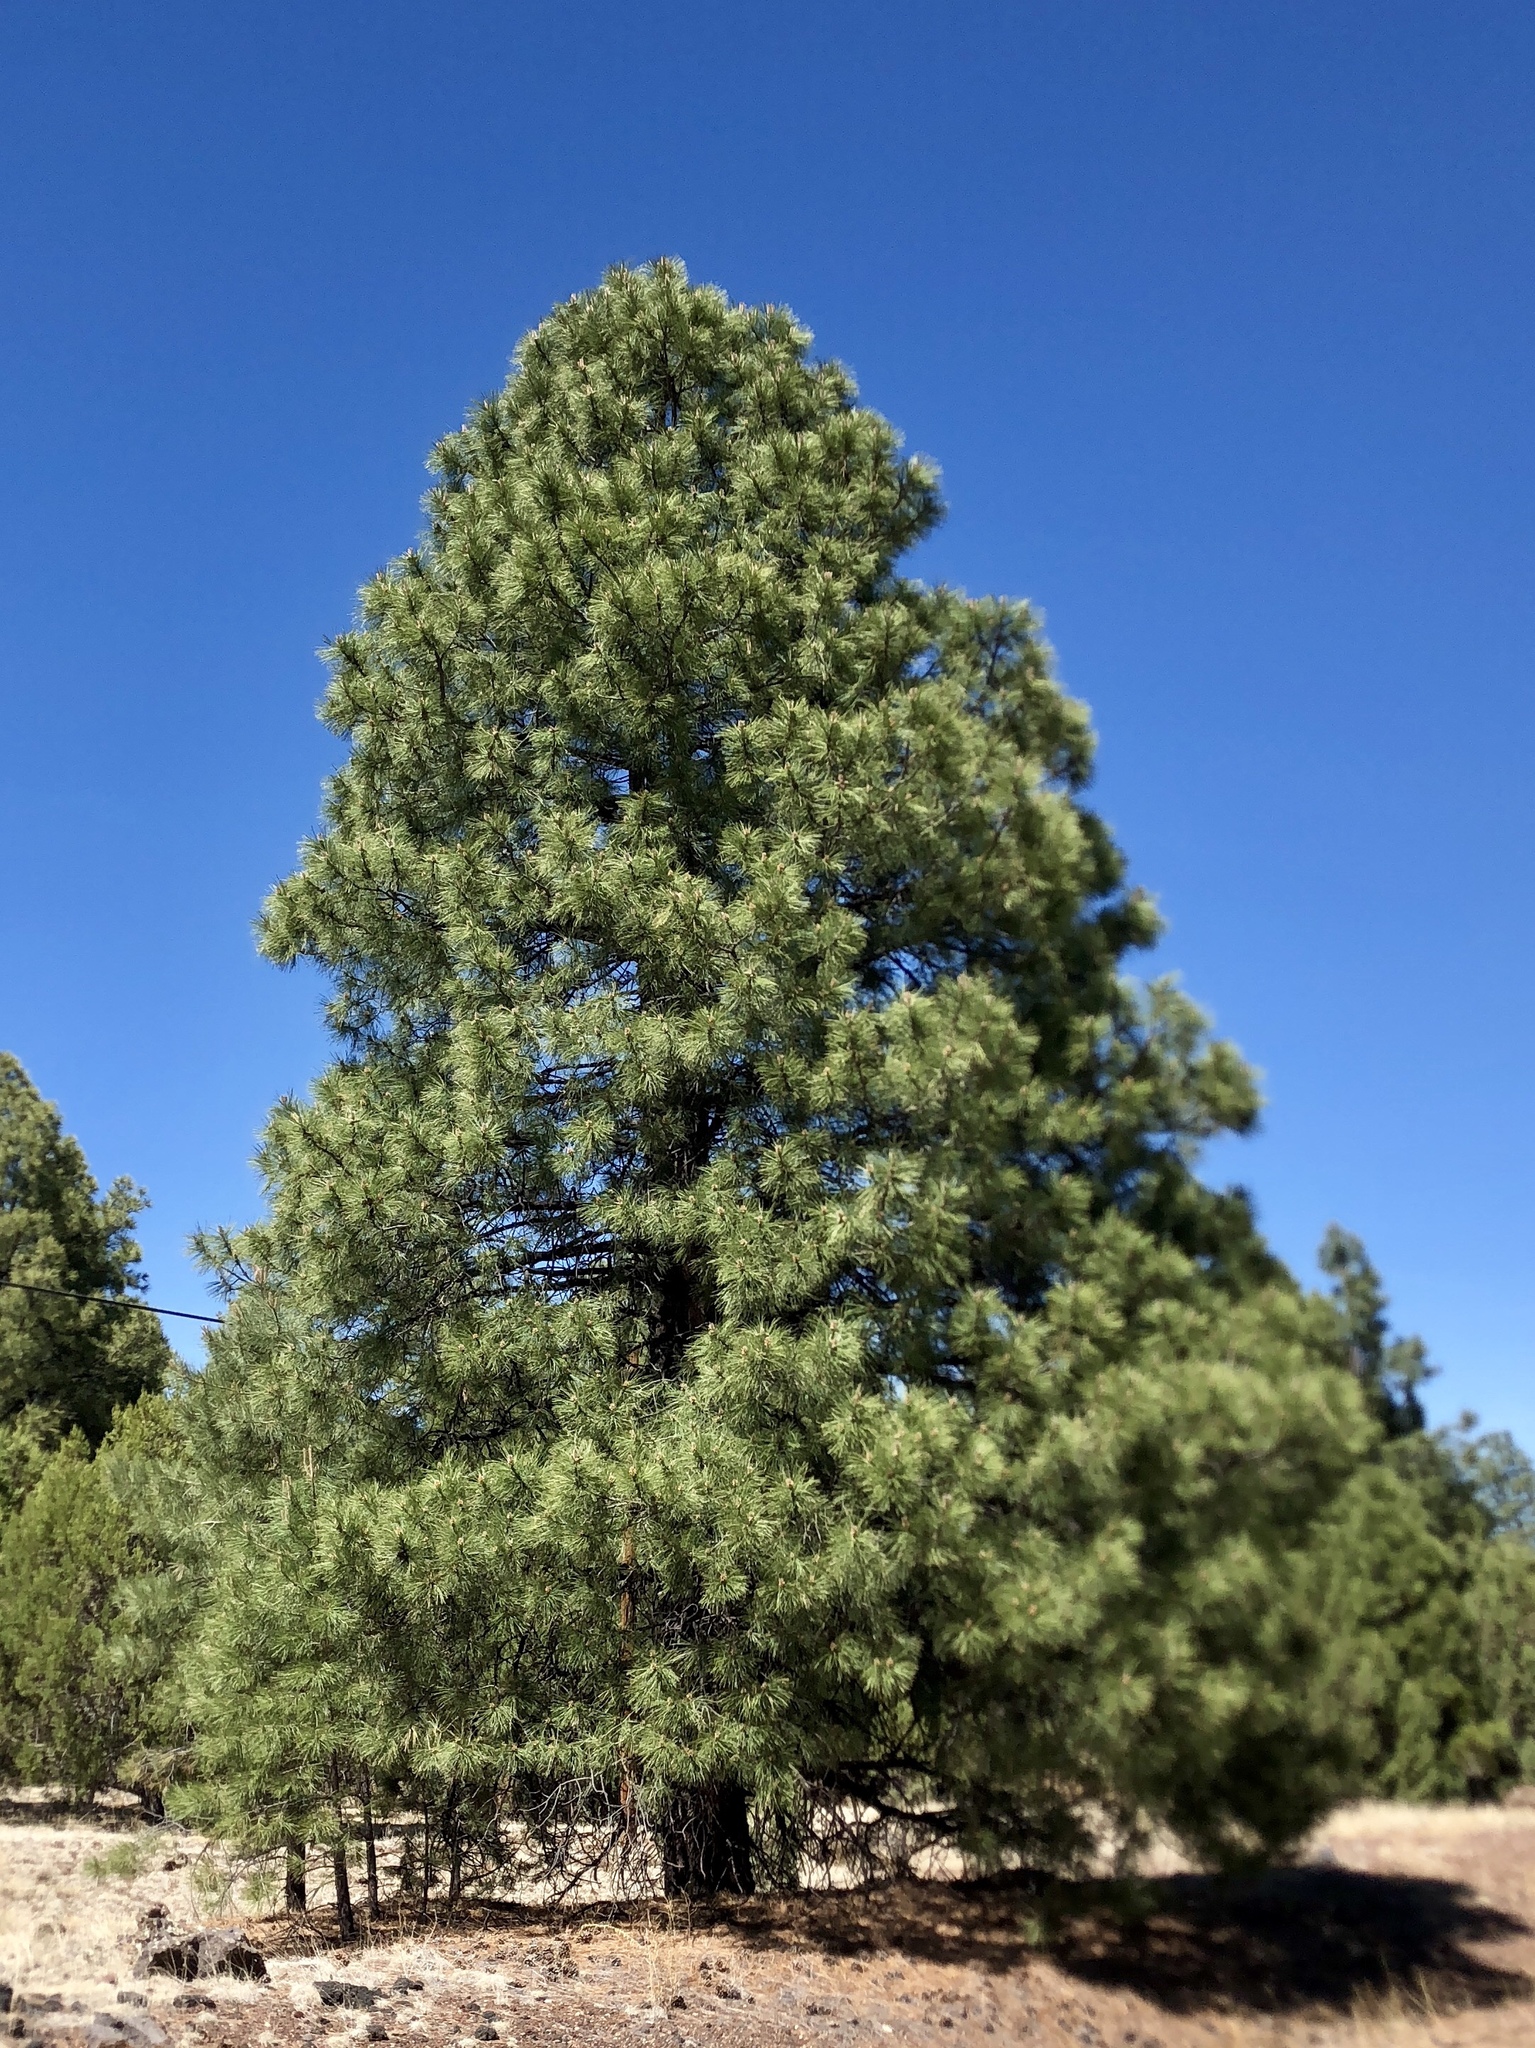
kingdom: Plantae
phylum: Tracheophyta
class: Pinopsida
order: Pinales
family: Pinaceae
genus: Pinus
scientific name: Pinus ponderosa
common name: Western yellow-pine
